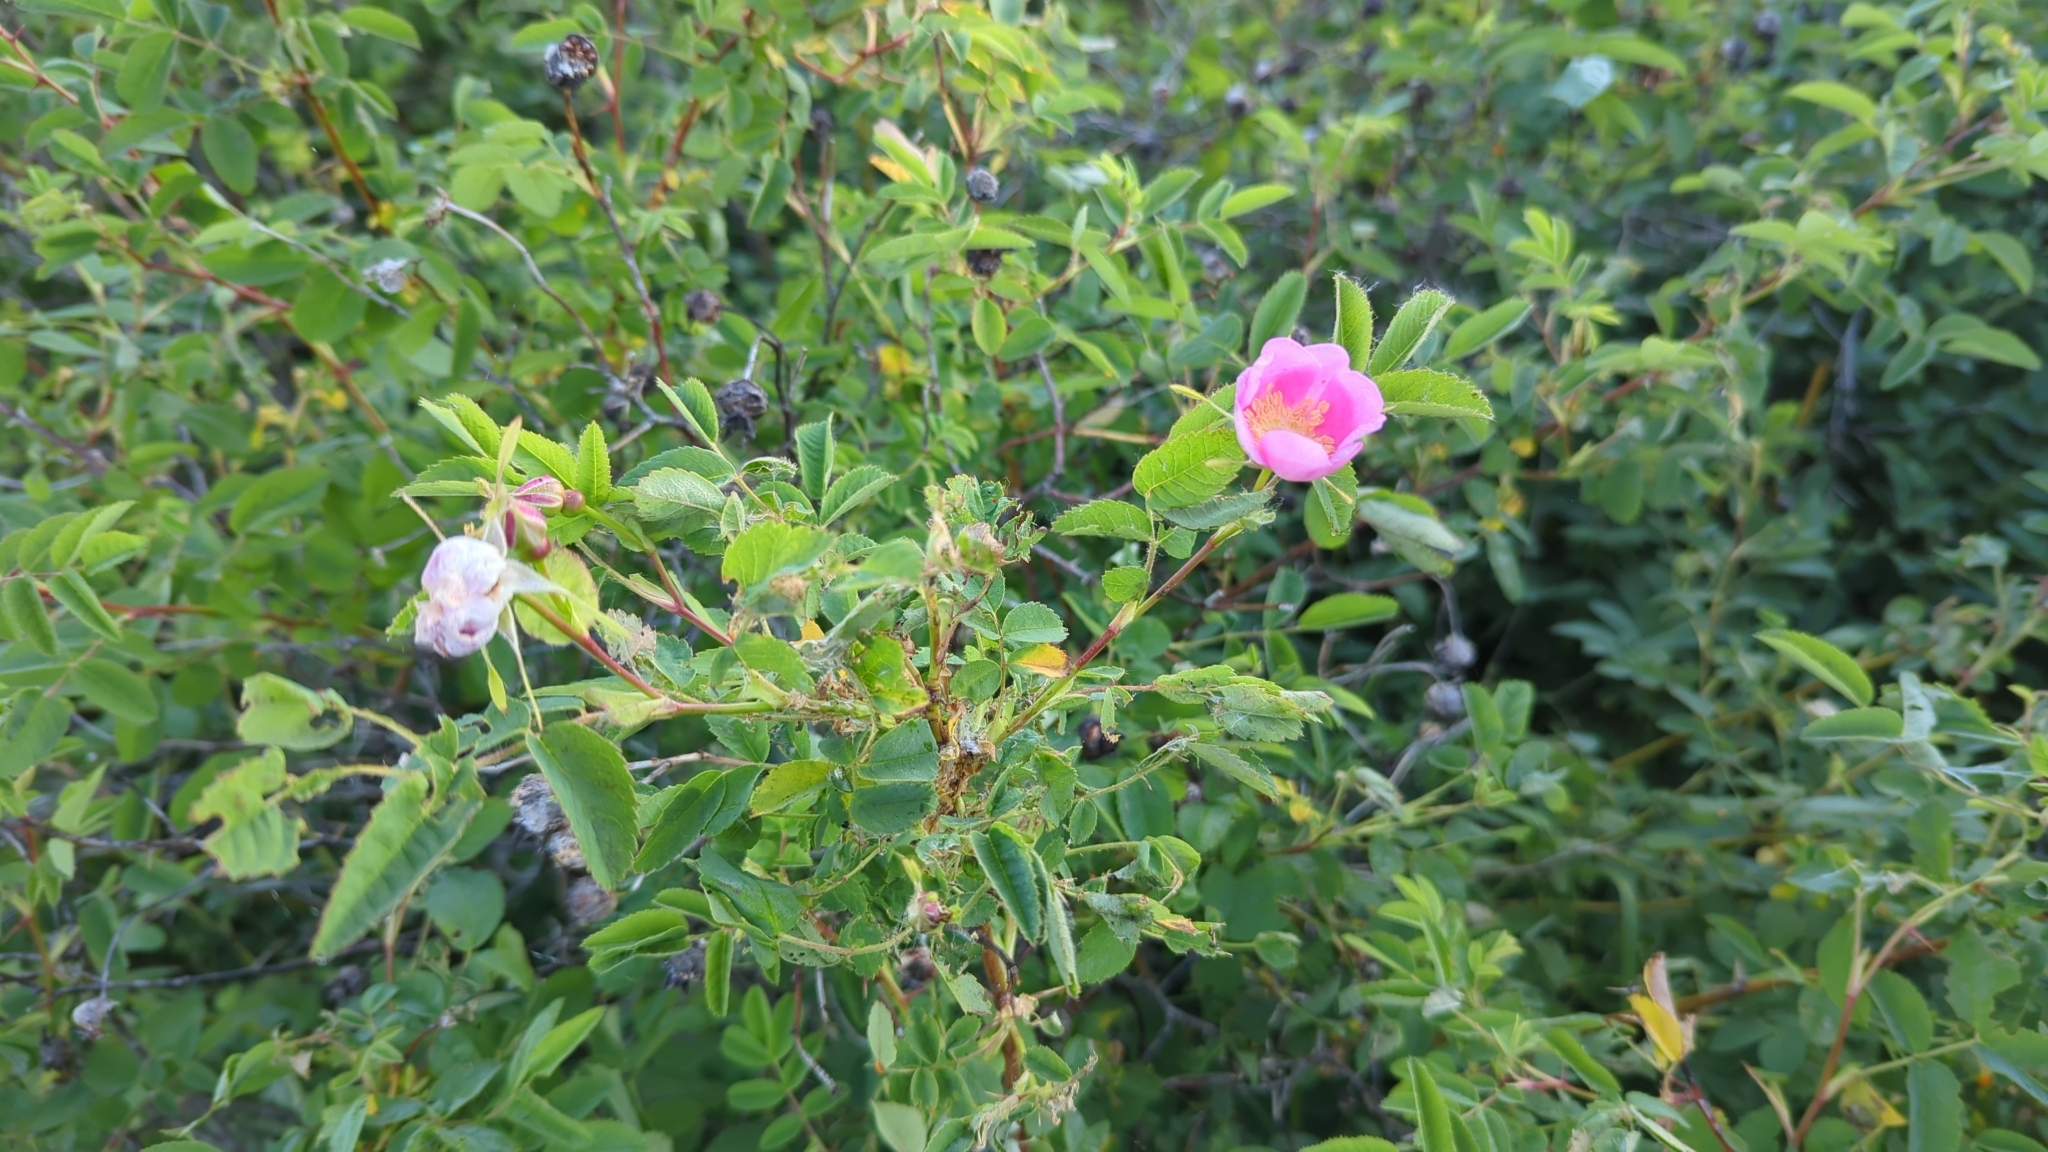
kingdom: Plantae
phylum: Tracheophyta
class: Magnoliopsida
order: Rosales
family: Rosaceae
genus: Rosa
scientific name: Rosa nutkana
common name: Nootka rose
